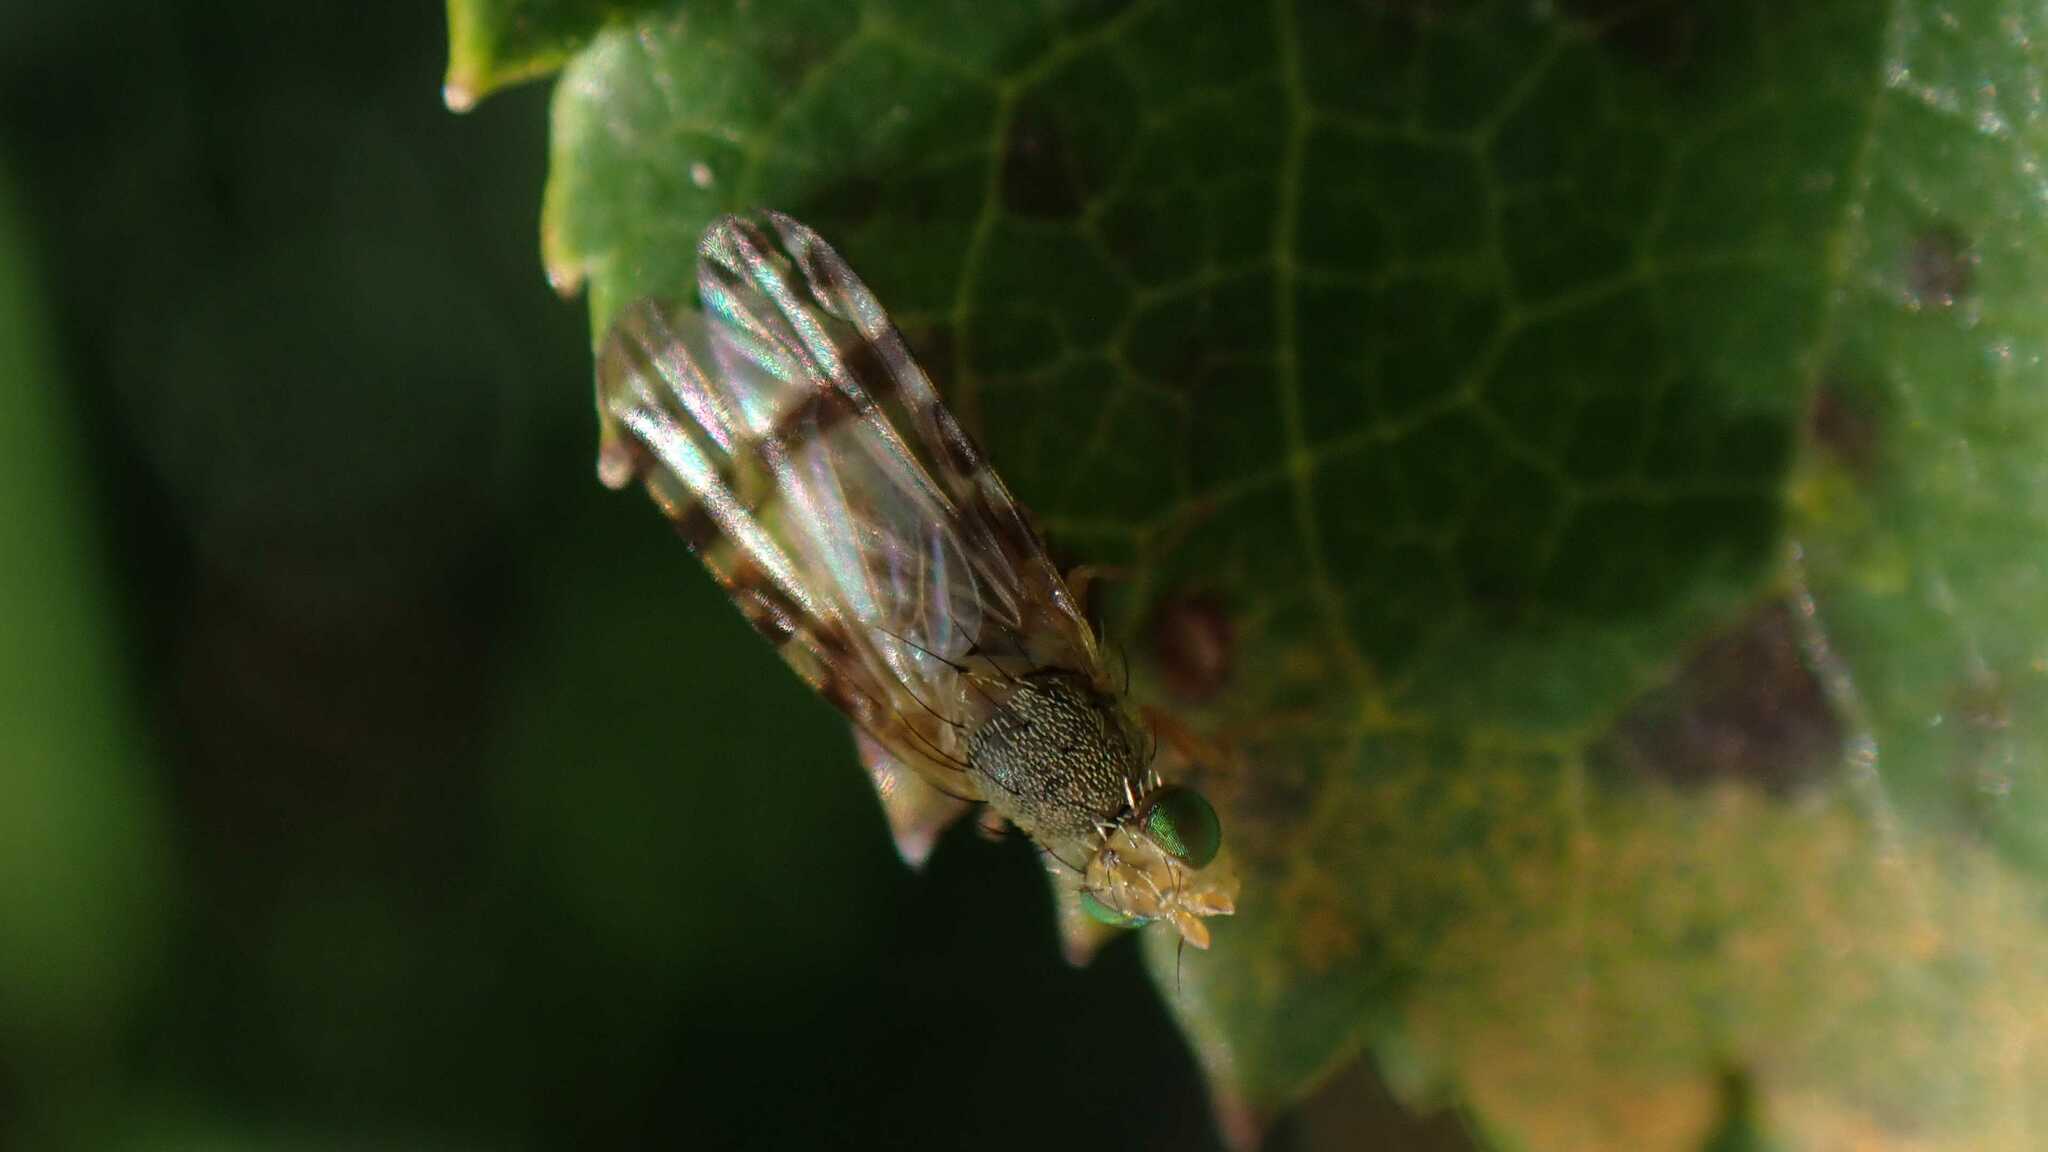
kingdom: Animalia
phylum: Arthropoda
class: Insecta
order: Diptera
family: Tephritidae
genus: Sphenella
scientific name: Sphenella marginata
